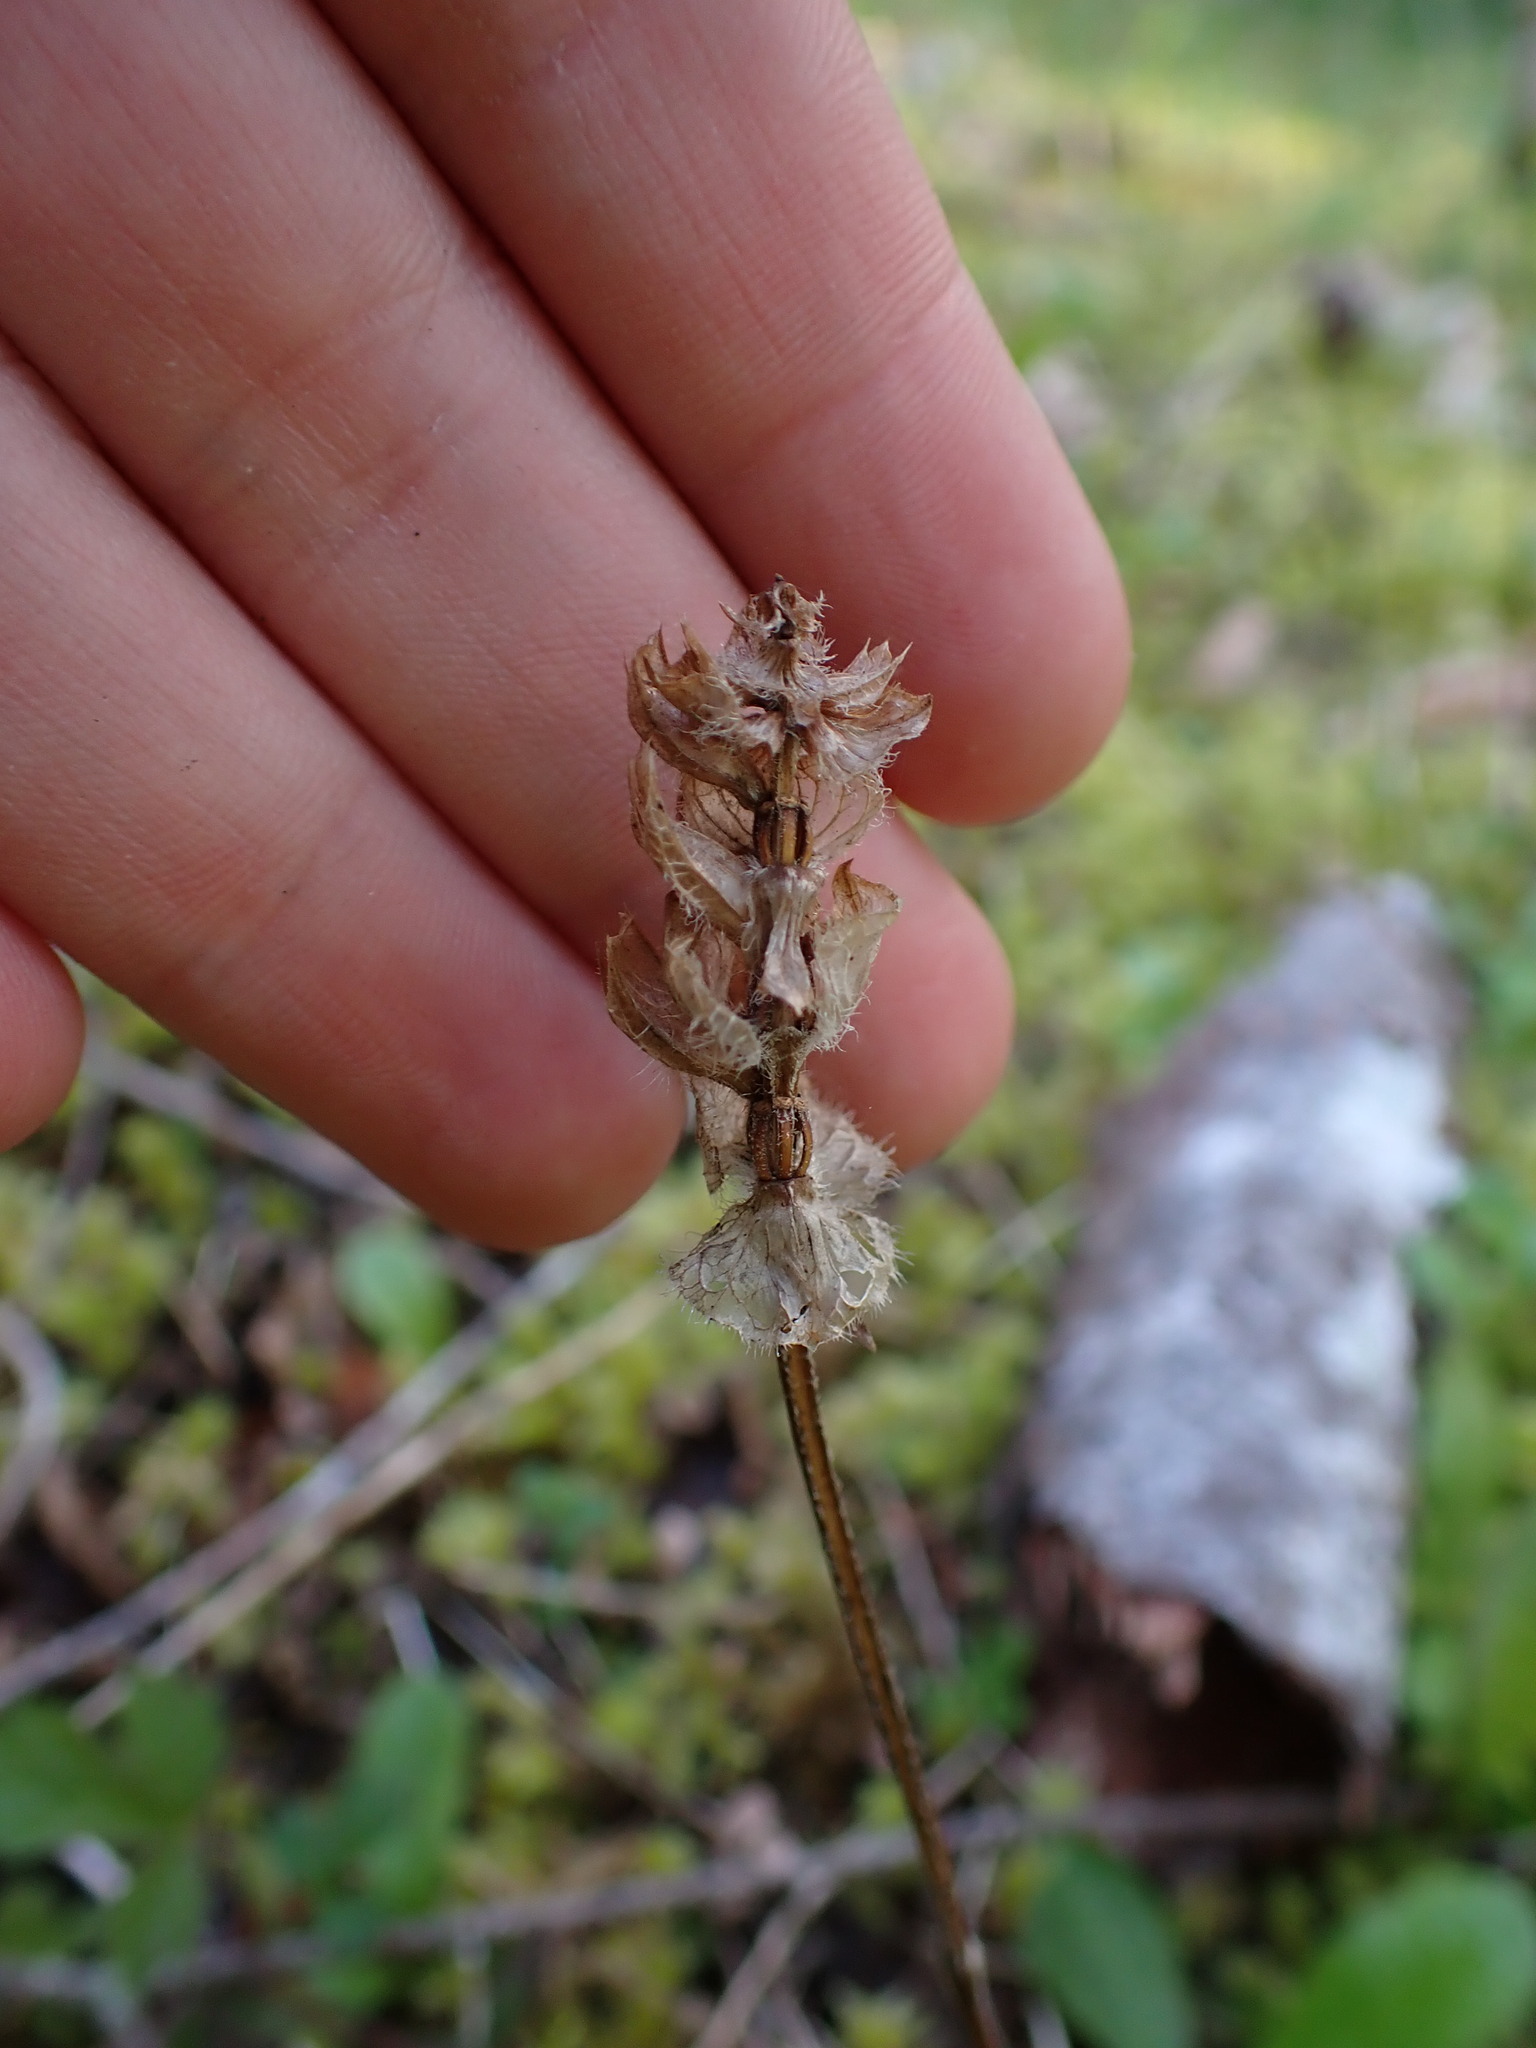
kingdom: Plantae
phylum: Tracheophyta
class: Magnoliopsida
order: Lamiales
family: Lamiaceae
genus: Prunella
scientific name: Prunella vulgaris
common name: Heal-all
